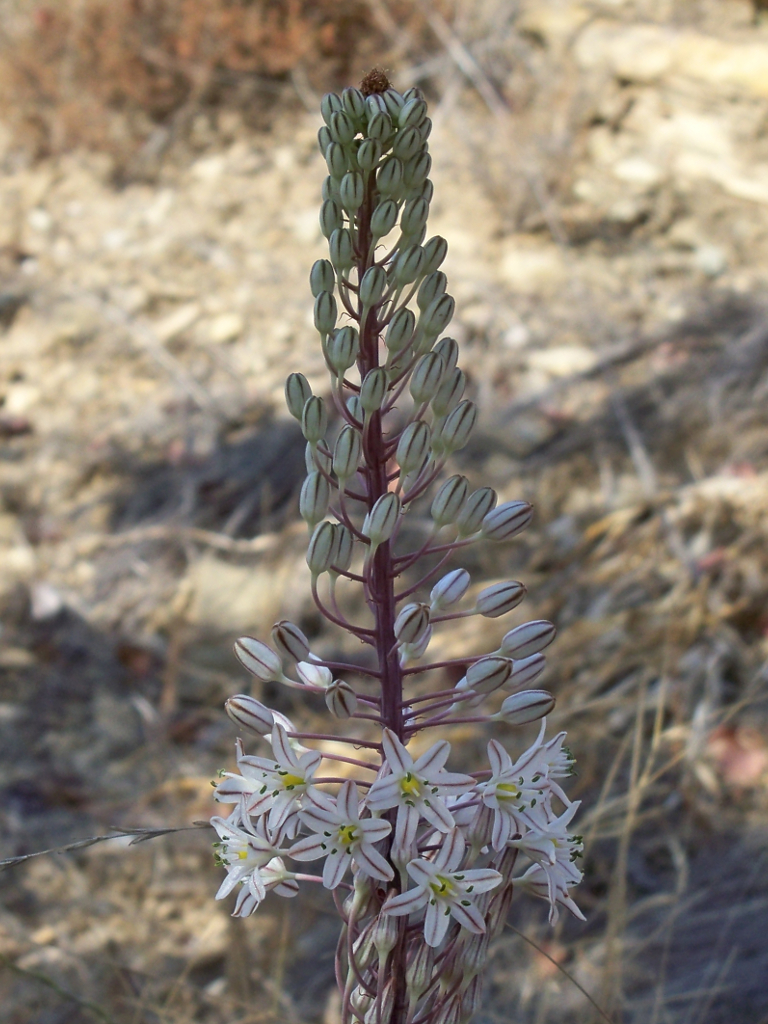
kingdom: Plantae
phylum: Tracheophyta
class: Liliopsida
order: Asparagales
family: Asparagaceae
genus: Drimia
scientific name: Drimia maritima
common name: Maritime squill
